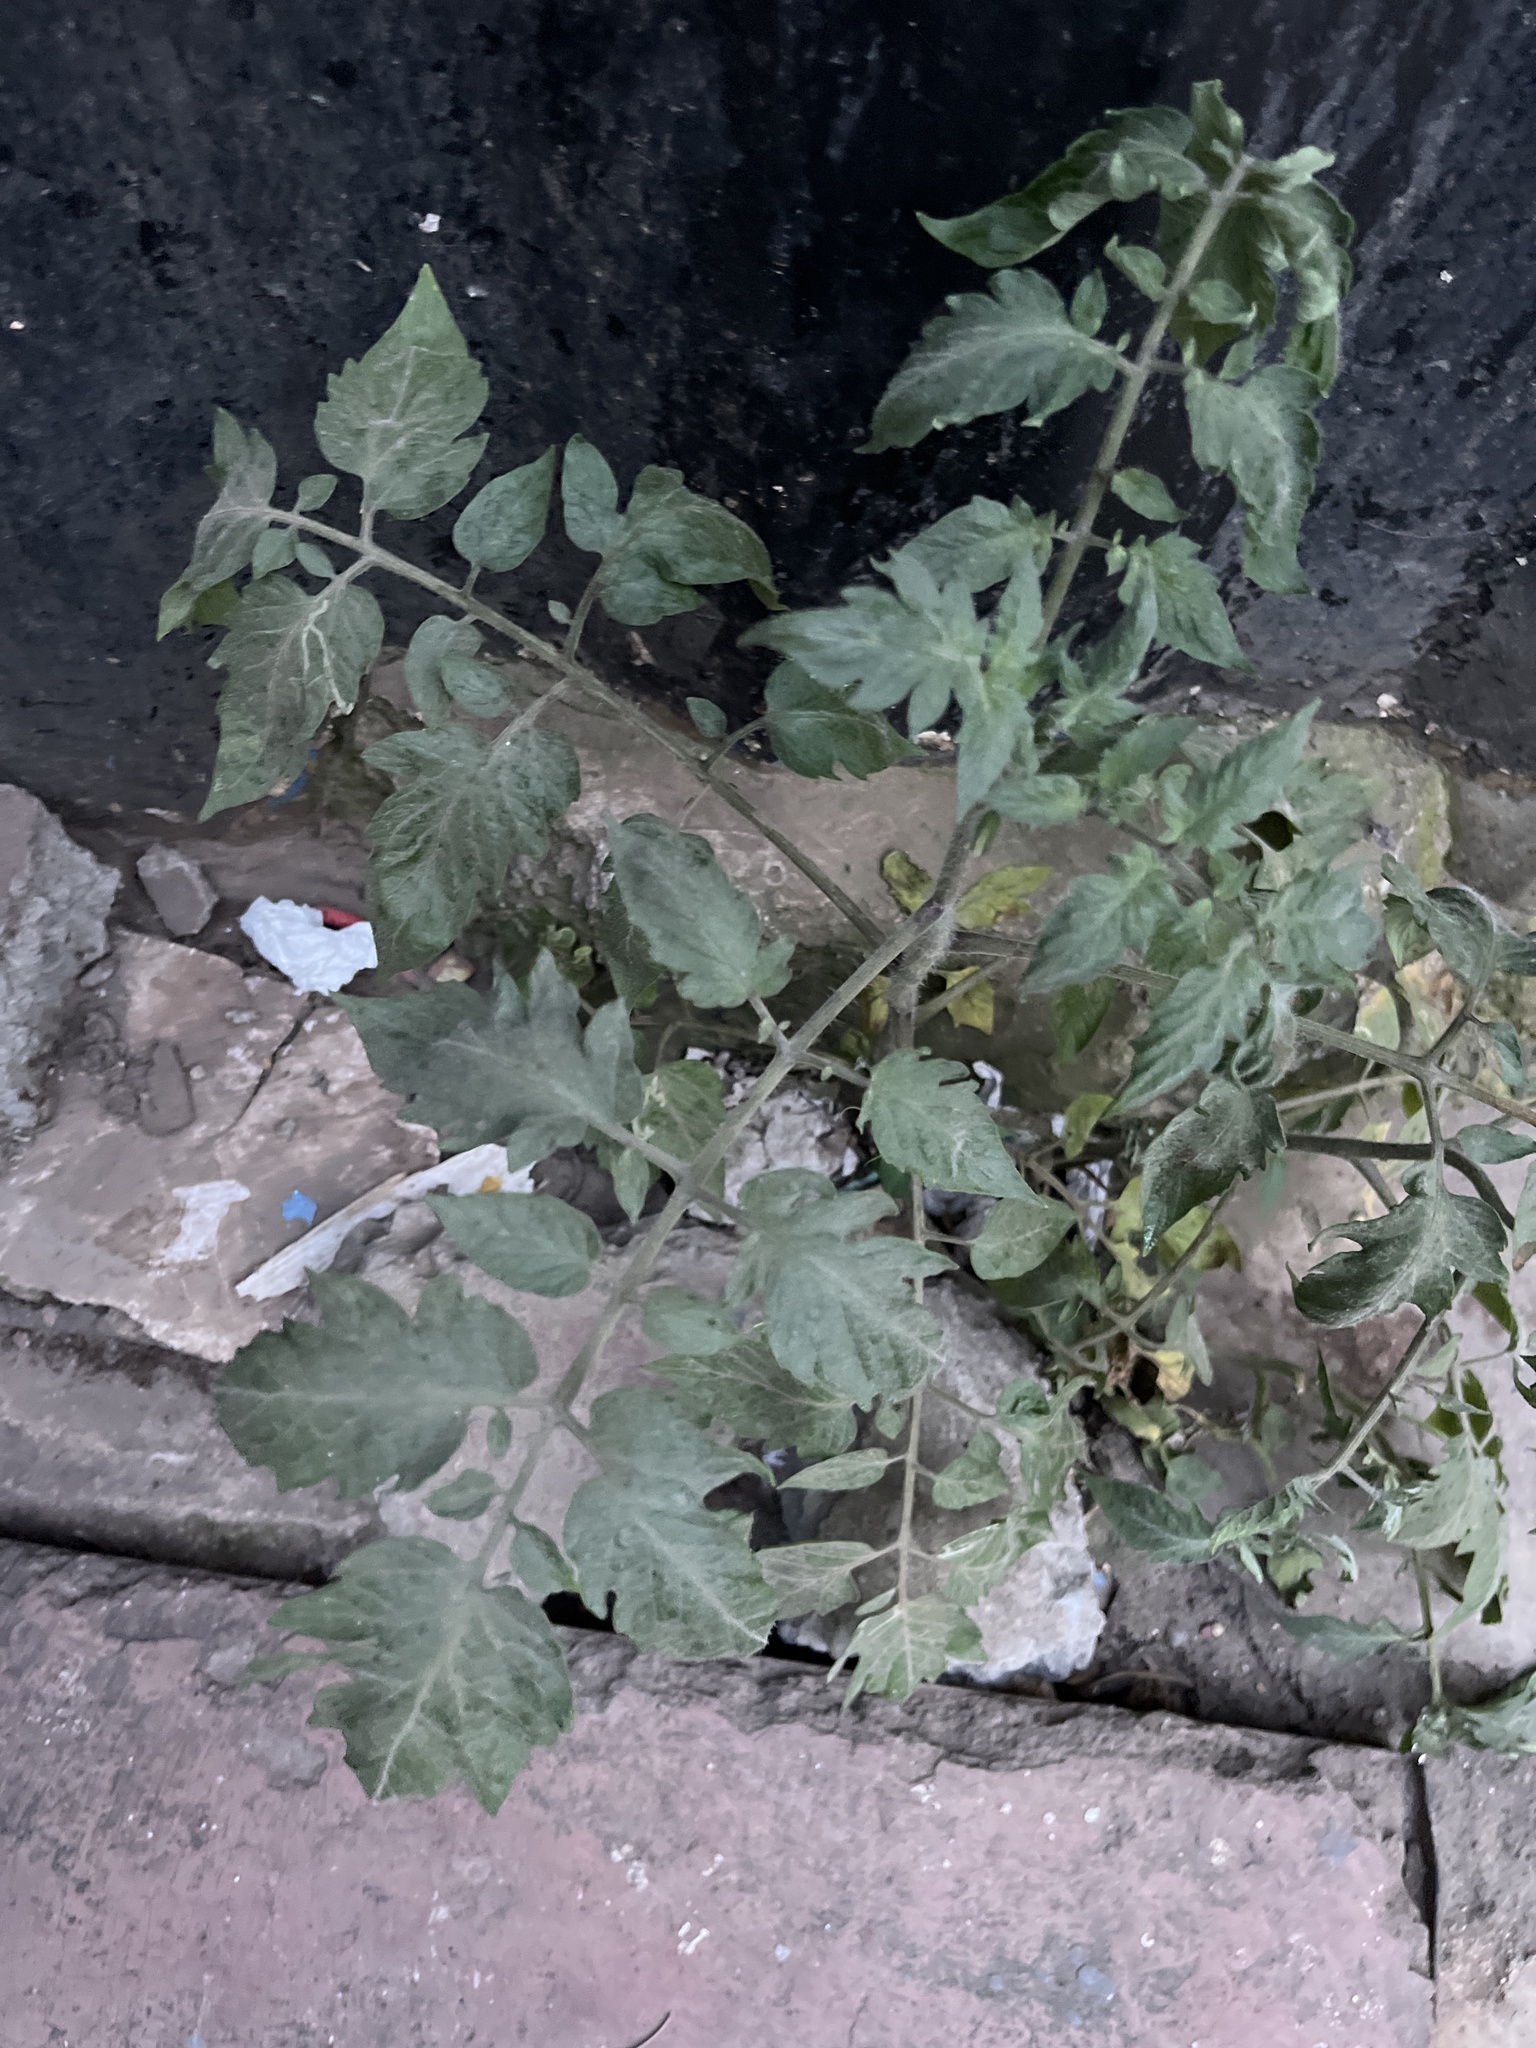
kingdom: Plantae
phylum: Tracheophyta
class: Magnoliopsida
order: Solanales
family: Solanaceae
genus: Solanum
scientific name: Solanum lycopersicum
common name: Garden tomato
